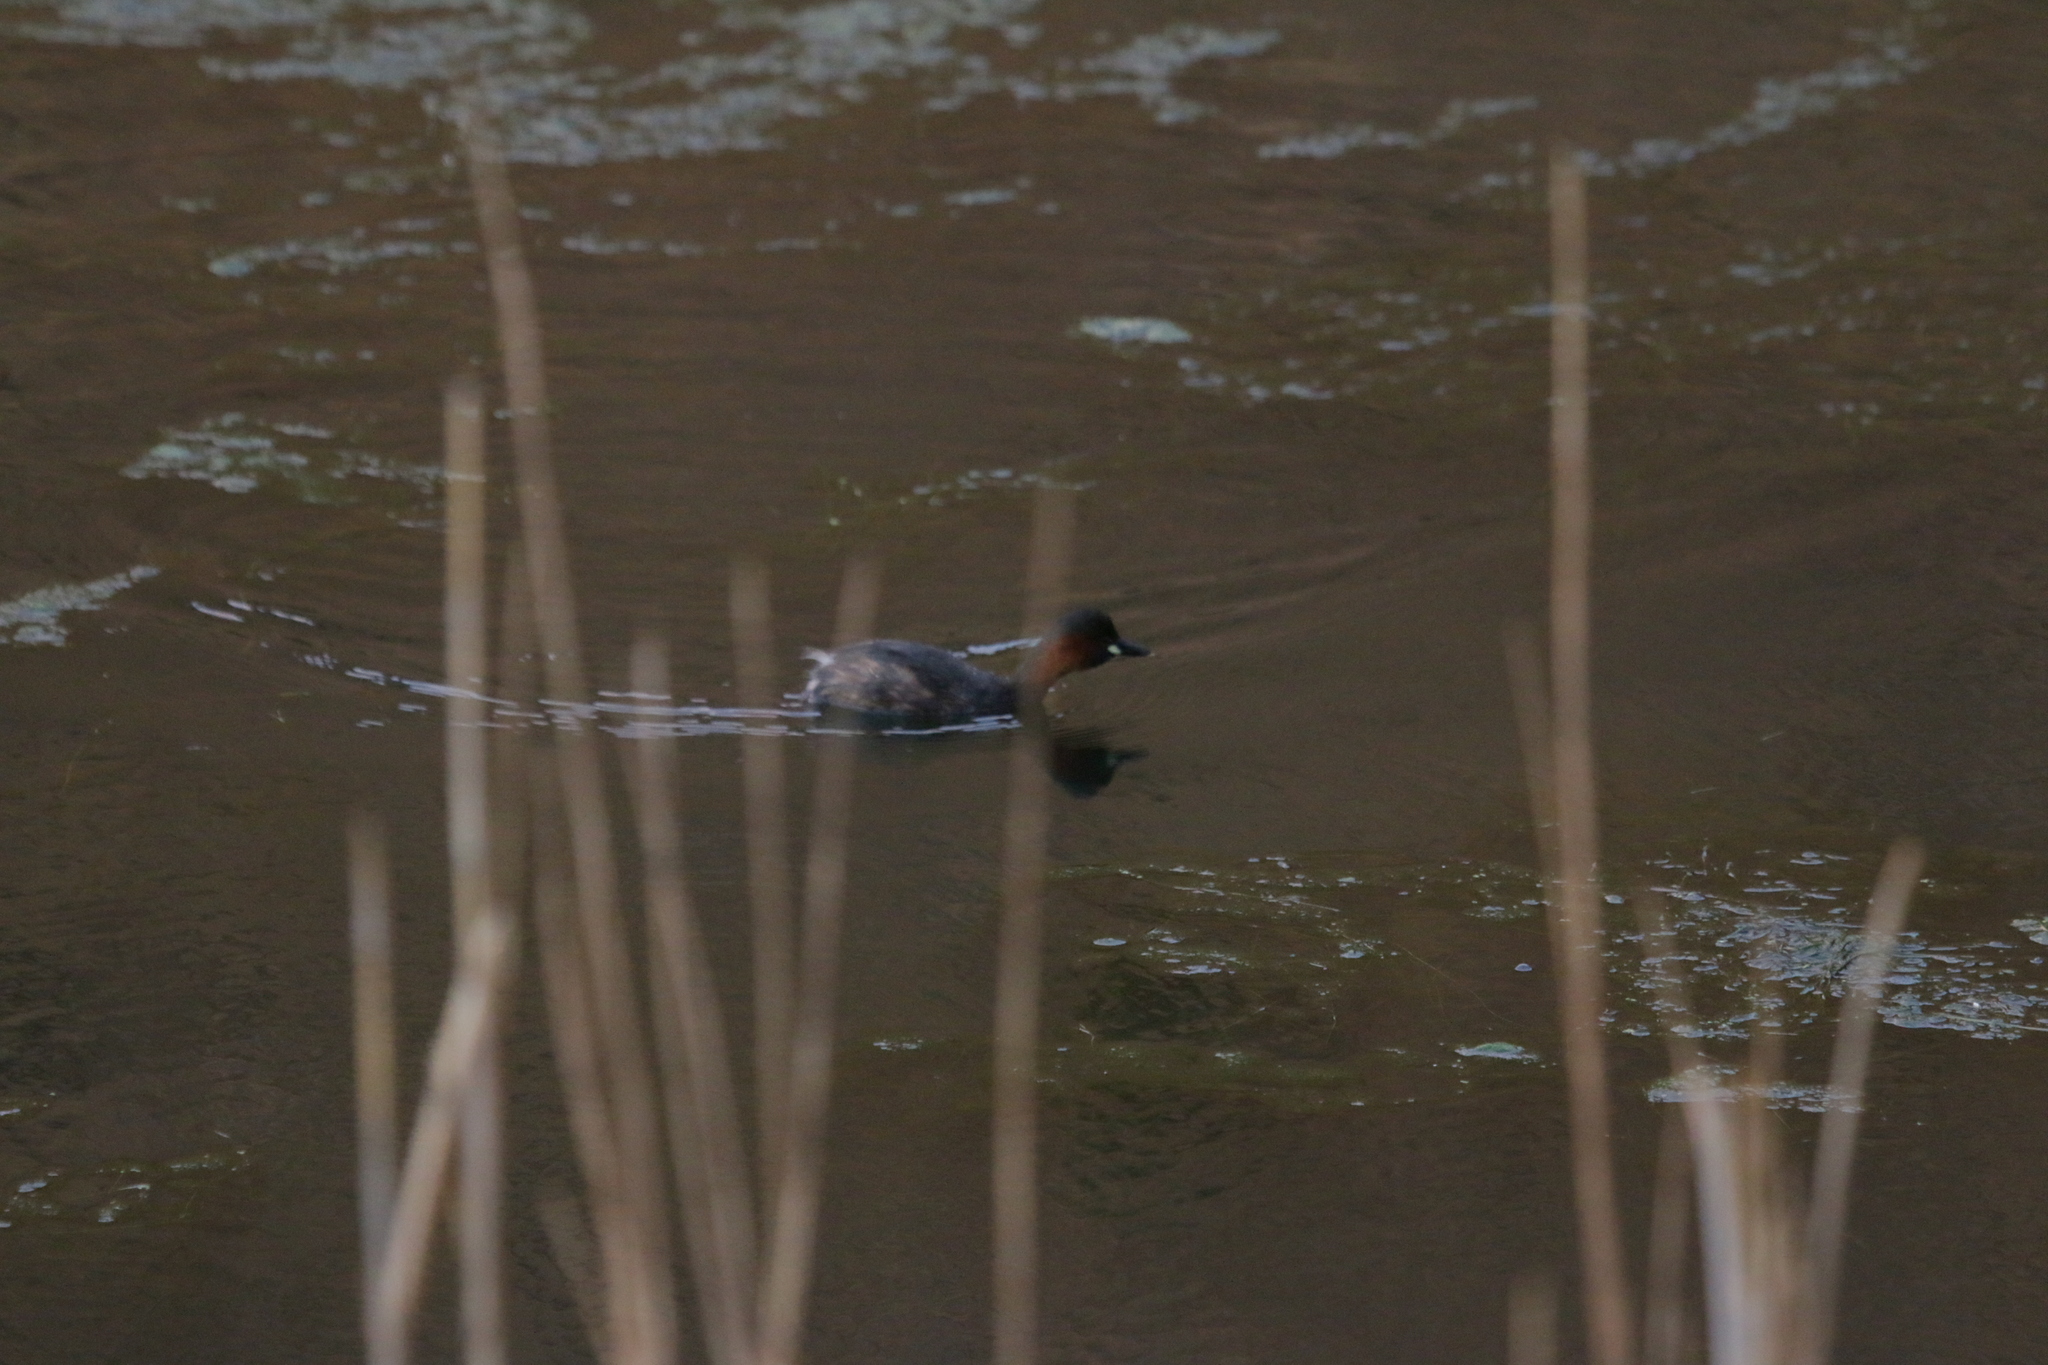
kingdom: Animalia
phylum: Chordata
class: Aves
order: Podicipediformes
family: Podicipedidae
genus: Tachybaptus
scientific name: Tachybaptus ruficollis
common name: Little grebe
